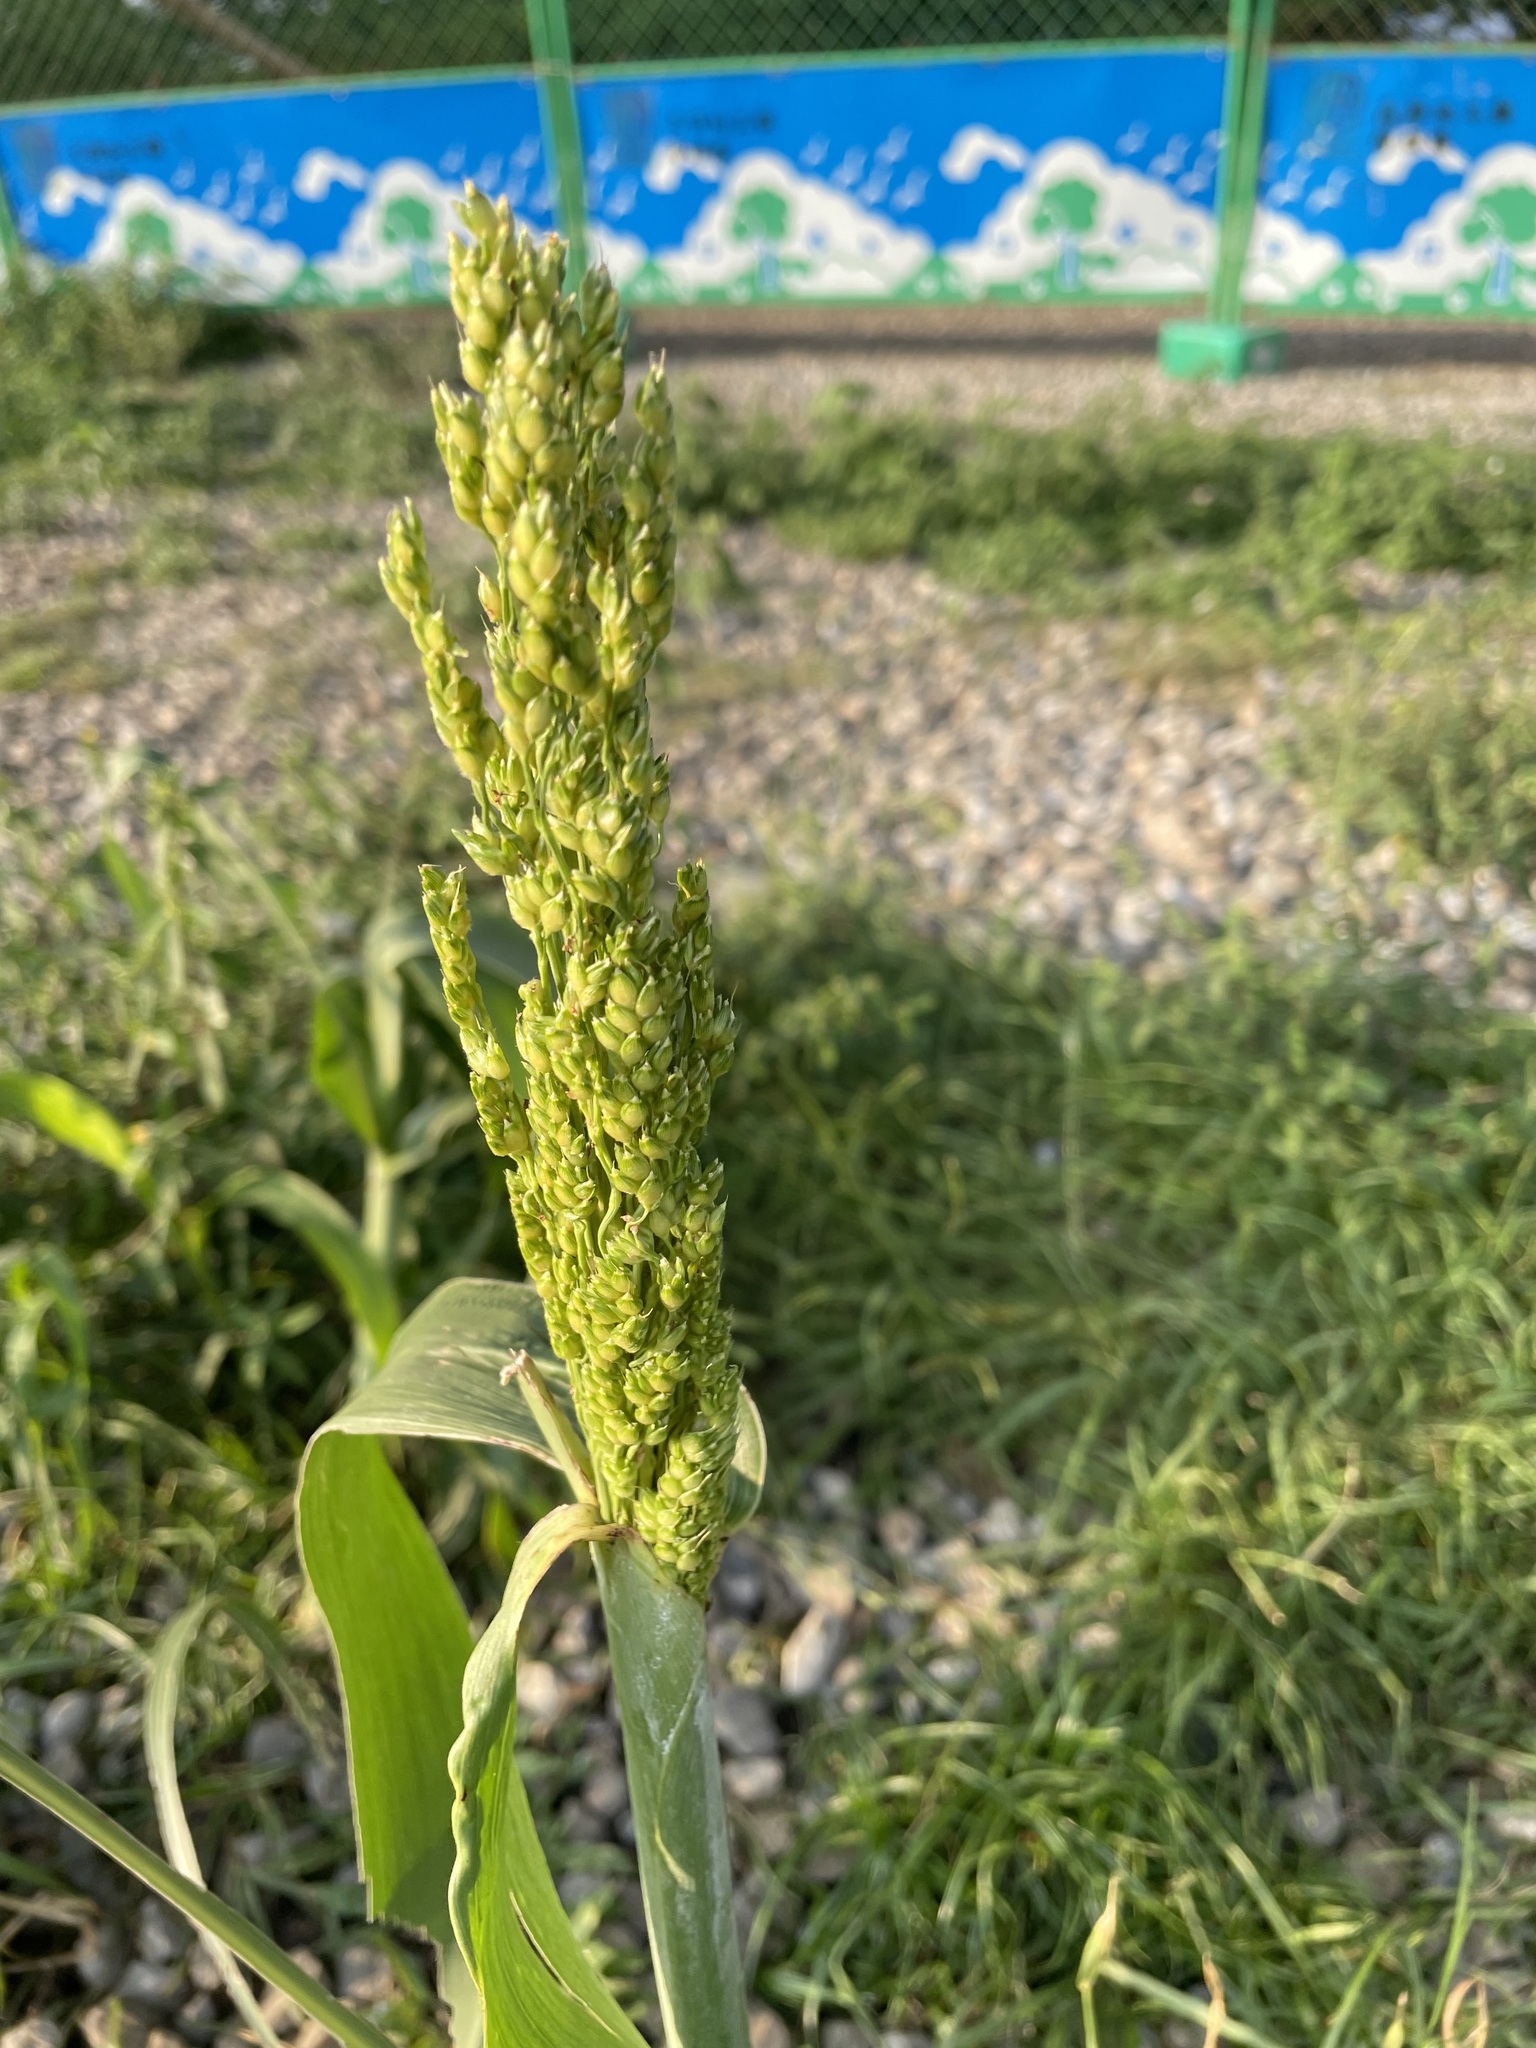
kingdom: Plantae
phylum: Tracheophyta
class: Liliopsida
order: Poales
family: Poaceae
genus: Sorghum
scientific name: Sorghum bicolor
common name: Sorghum
